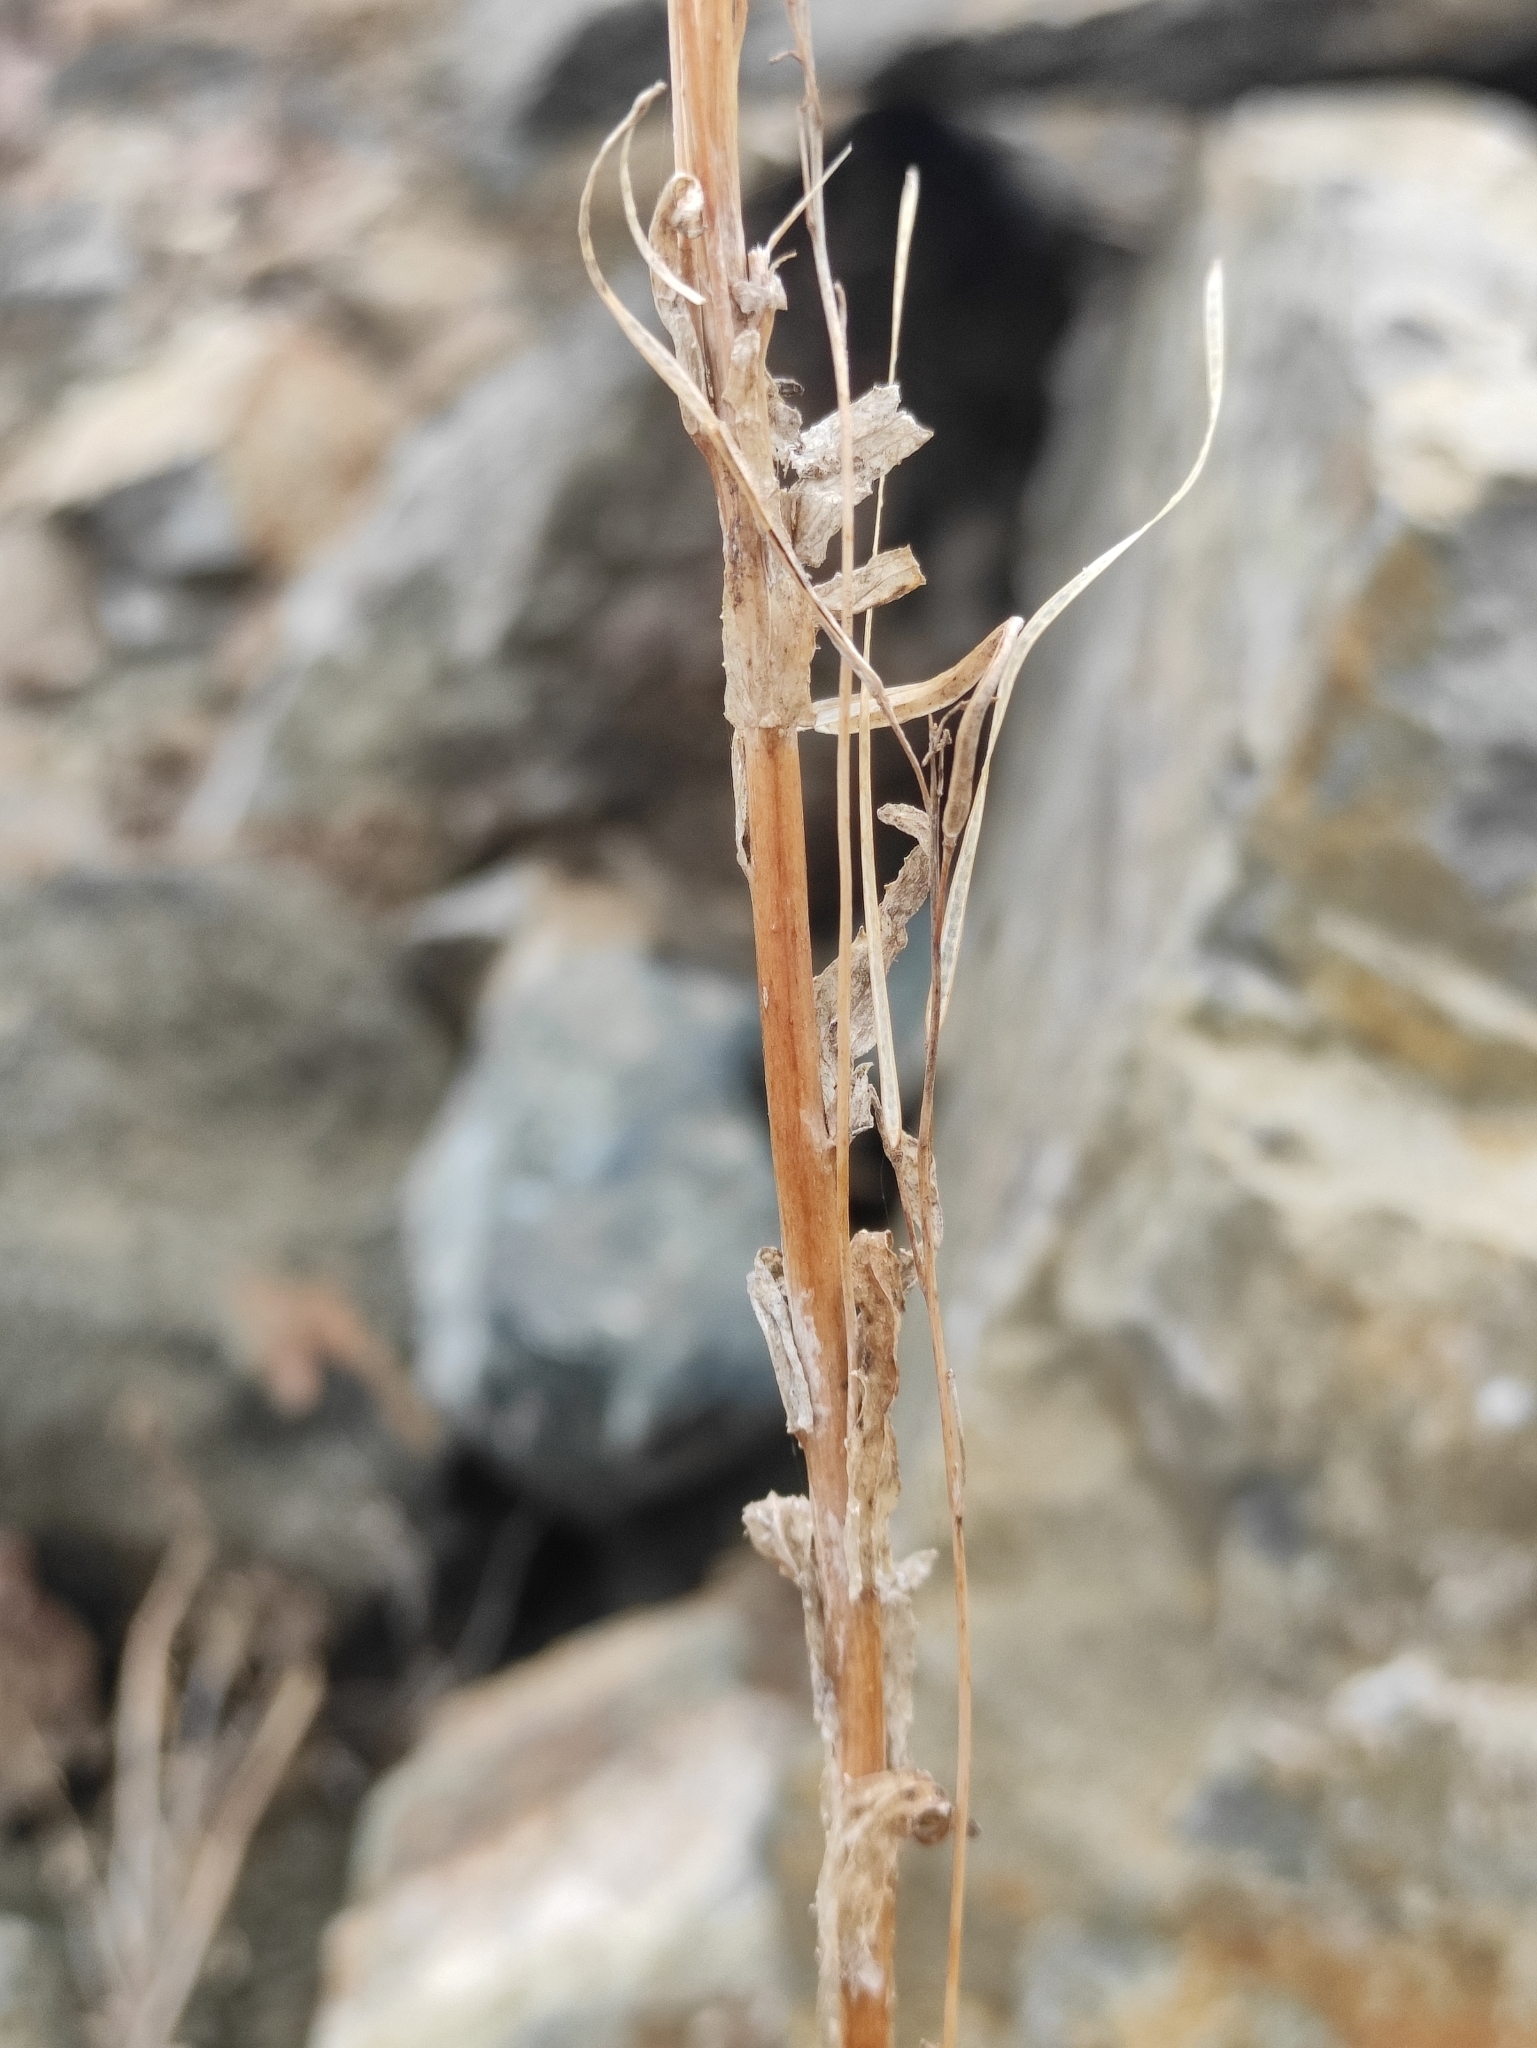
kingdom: Plantae
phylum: Tracheophyta
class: Magnoliopsida
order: Brassicales
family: Brassicaceae
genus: Arabis
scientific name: Arabis borealis
